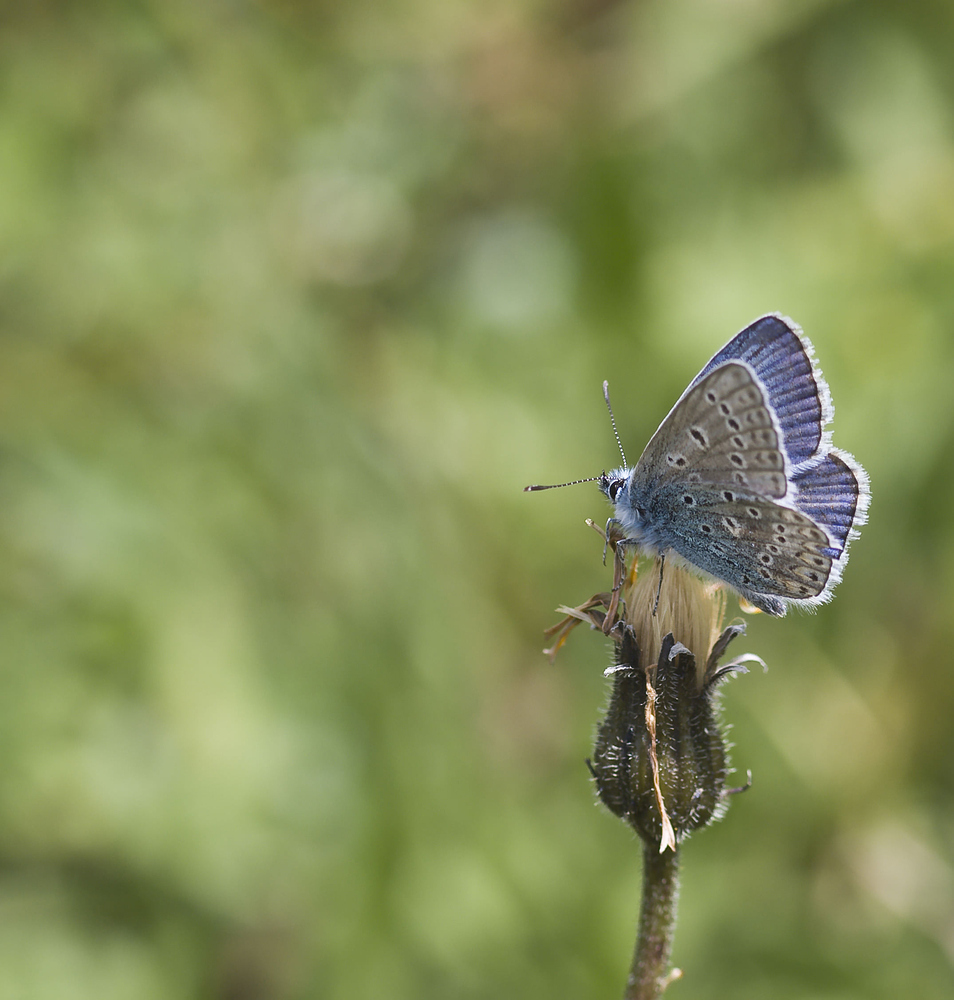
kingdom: Animalia
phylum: Arthropoda
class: Insecta
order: Lepidoptera
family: Lycaenidae
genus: Polyommatus
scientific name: Polyommatus icarus
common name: Common blue
